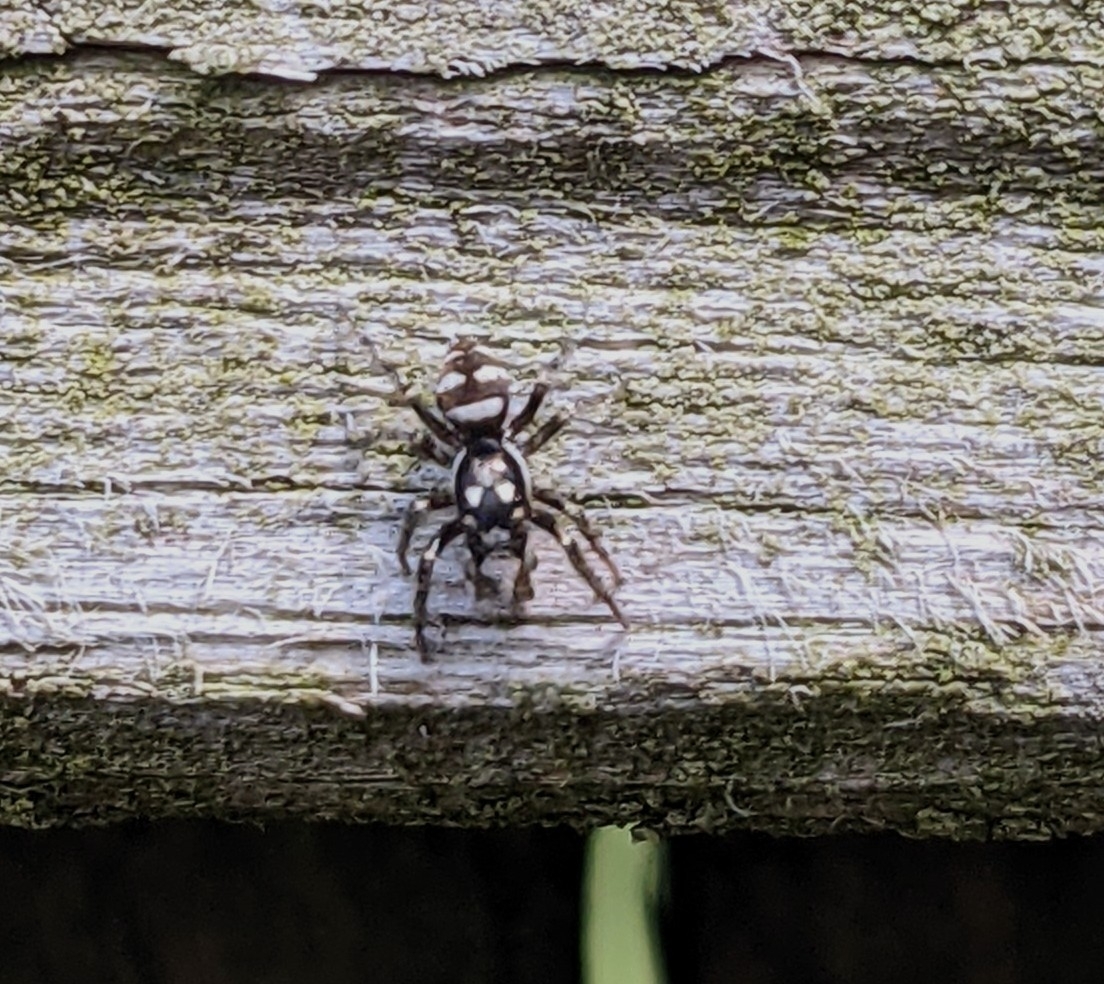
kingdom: Animalia
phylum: Arthropoda
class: Arachnida
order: Araneae
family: Salticidae
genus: Salticus
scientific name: Salticus scenicus
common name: Zebra jumper
